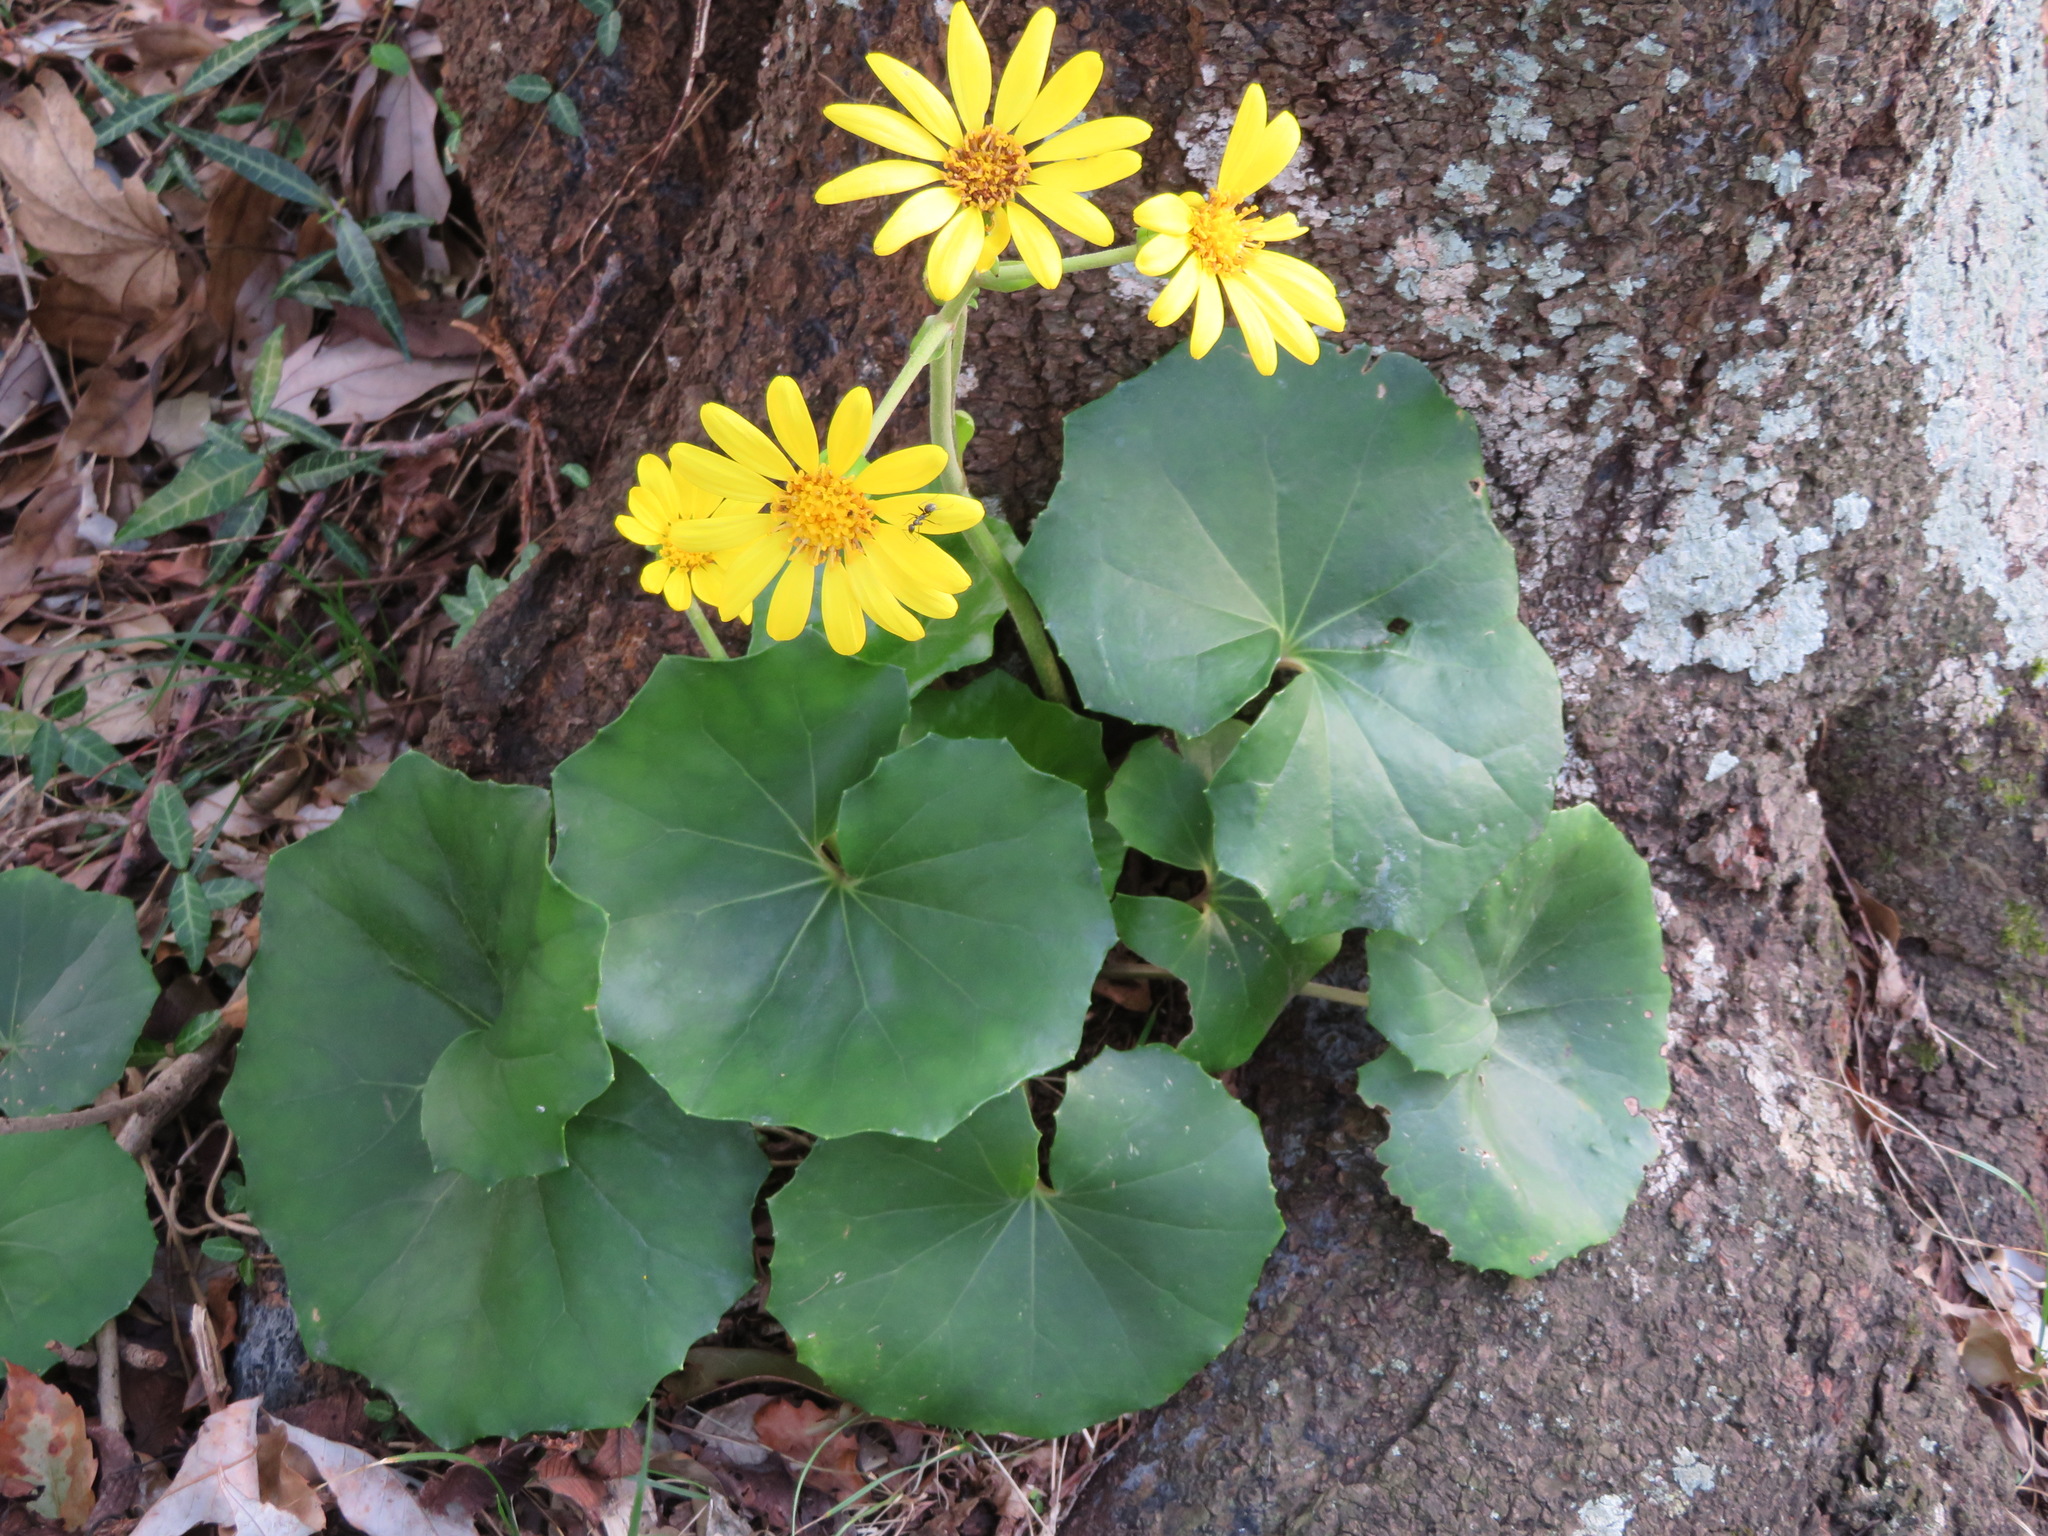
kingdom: Plantae
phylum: Tracheophyta
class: Magnoliopsida
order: Asterales
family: Asteraceae
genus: Farfugium
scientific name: Farfugium japonicum
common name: Leopardplant
